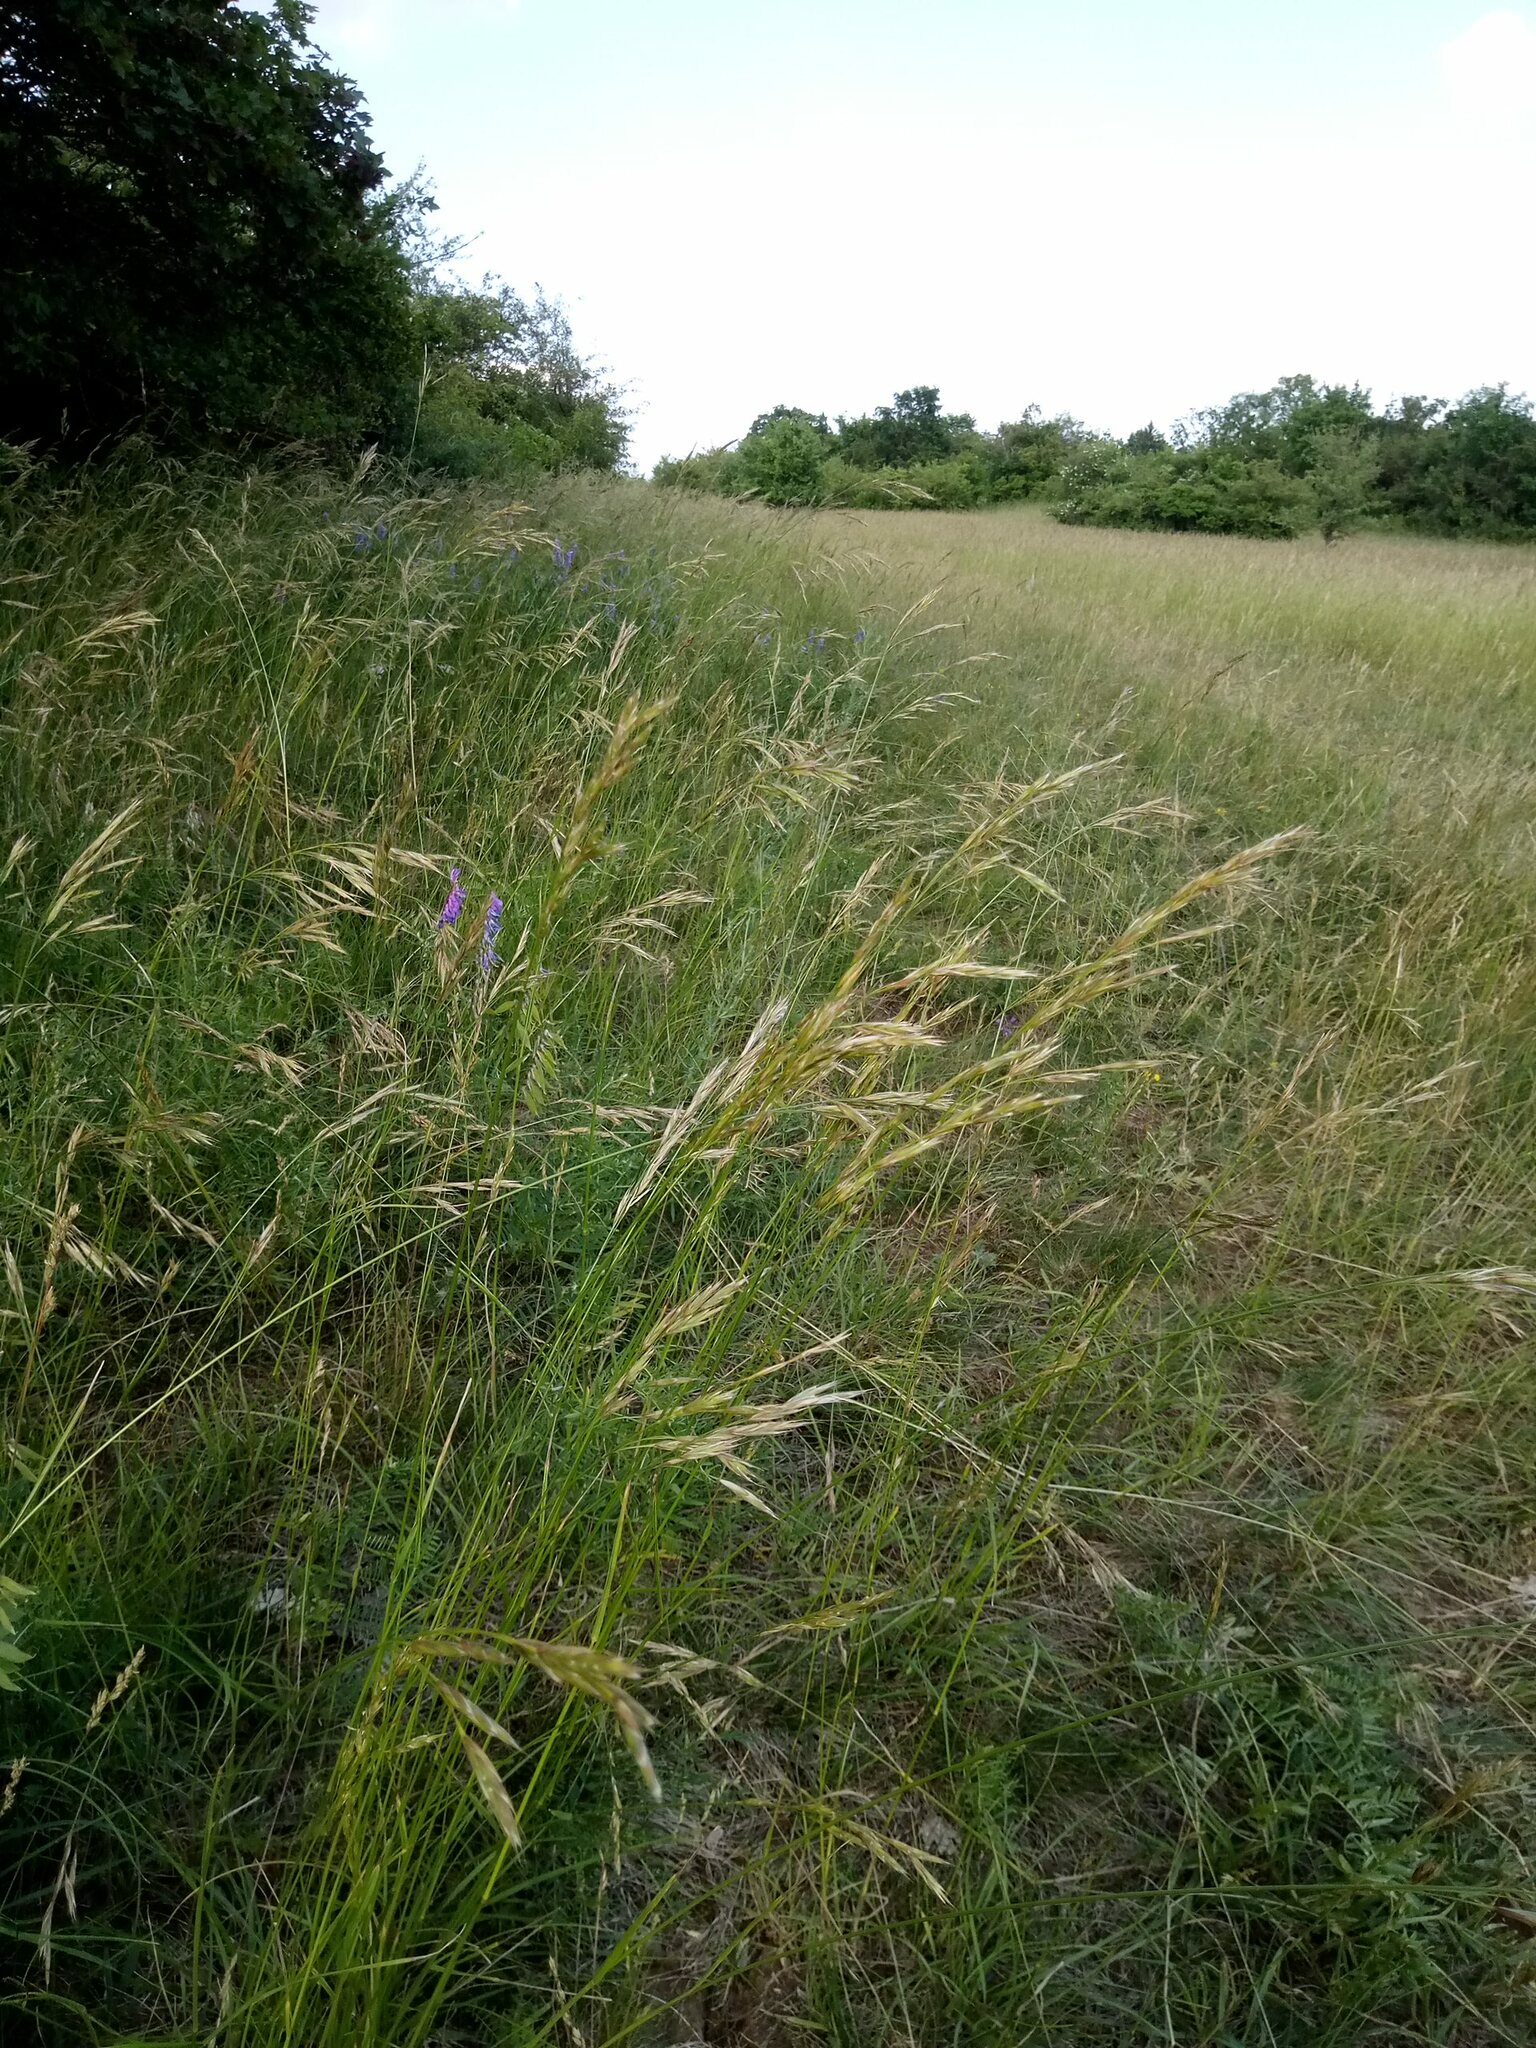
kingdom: Plantae
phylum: Tracheophyta
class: Liliopsida
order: Poales
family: Poaceae
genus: Bromus
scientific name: Bromus erectus
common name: Erect brome
